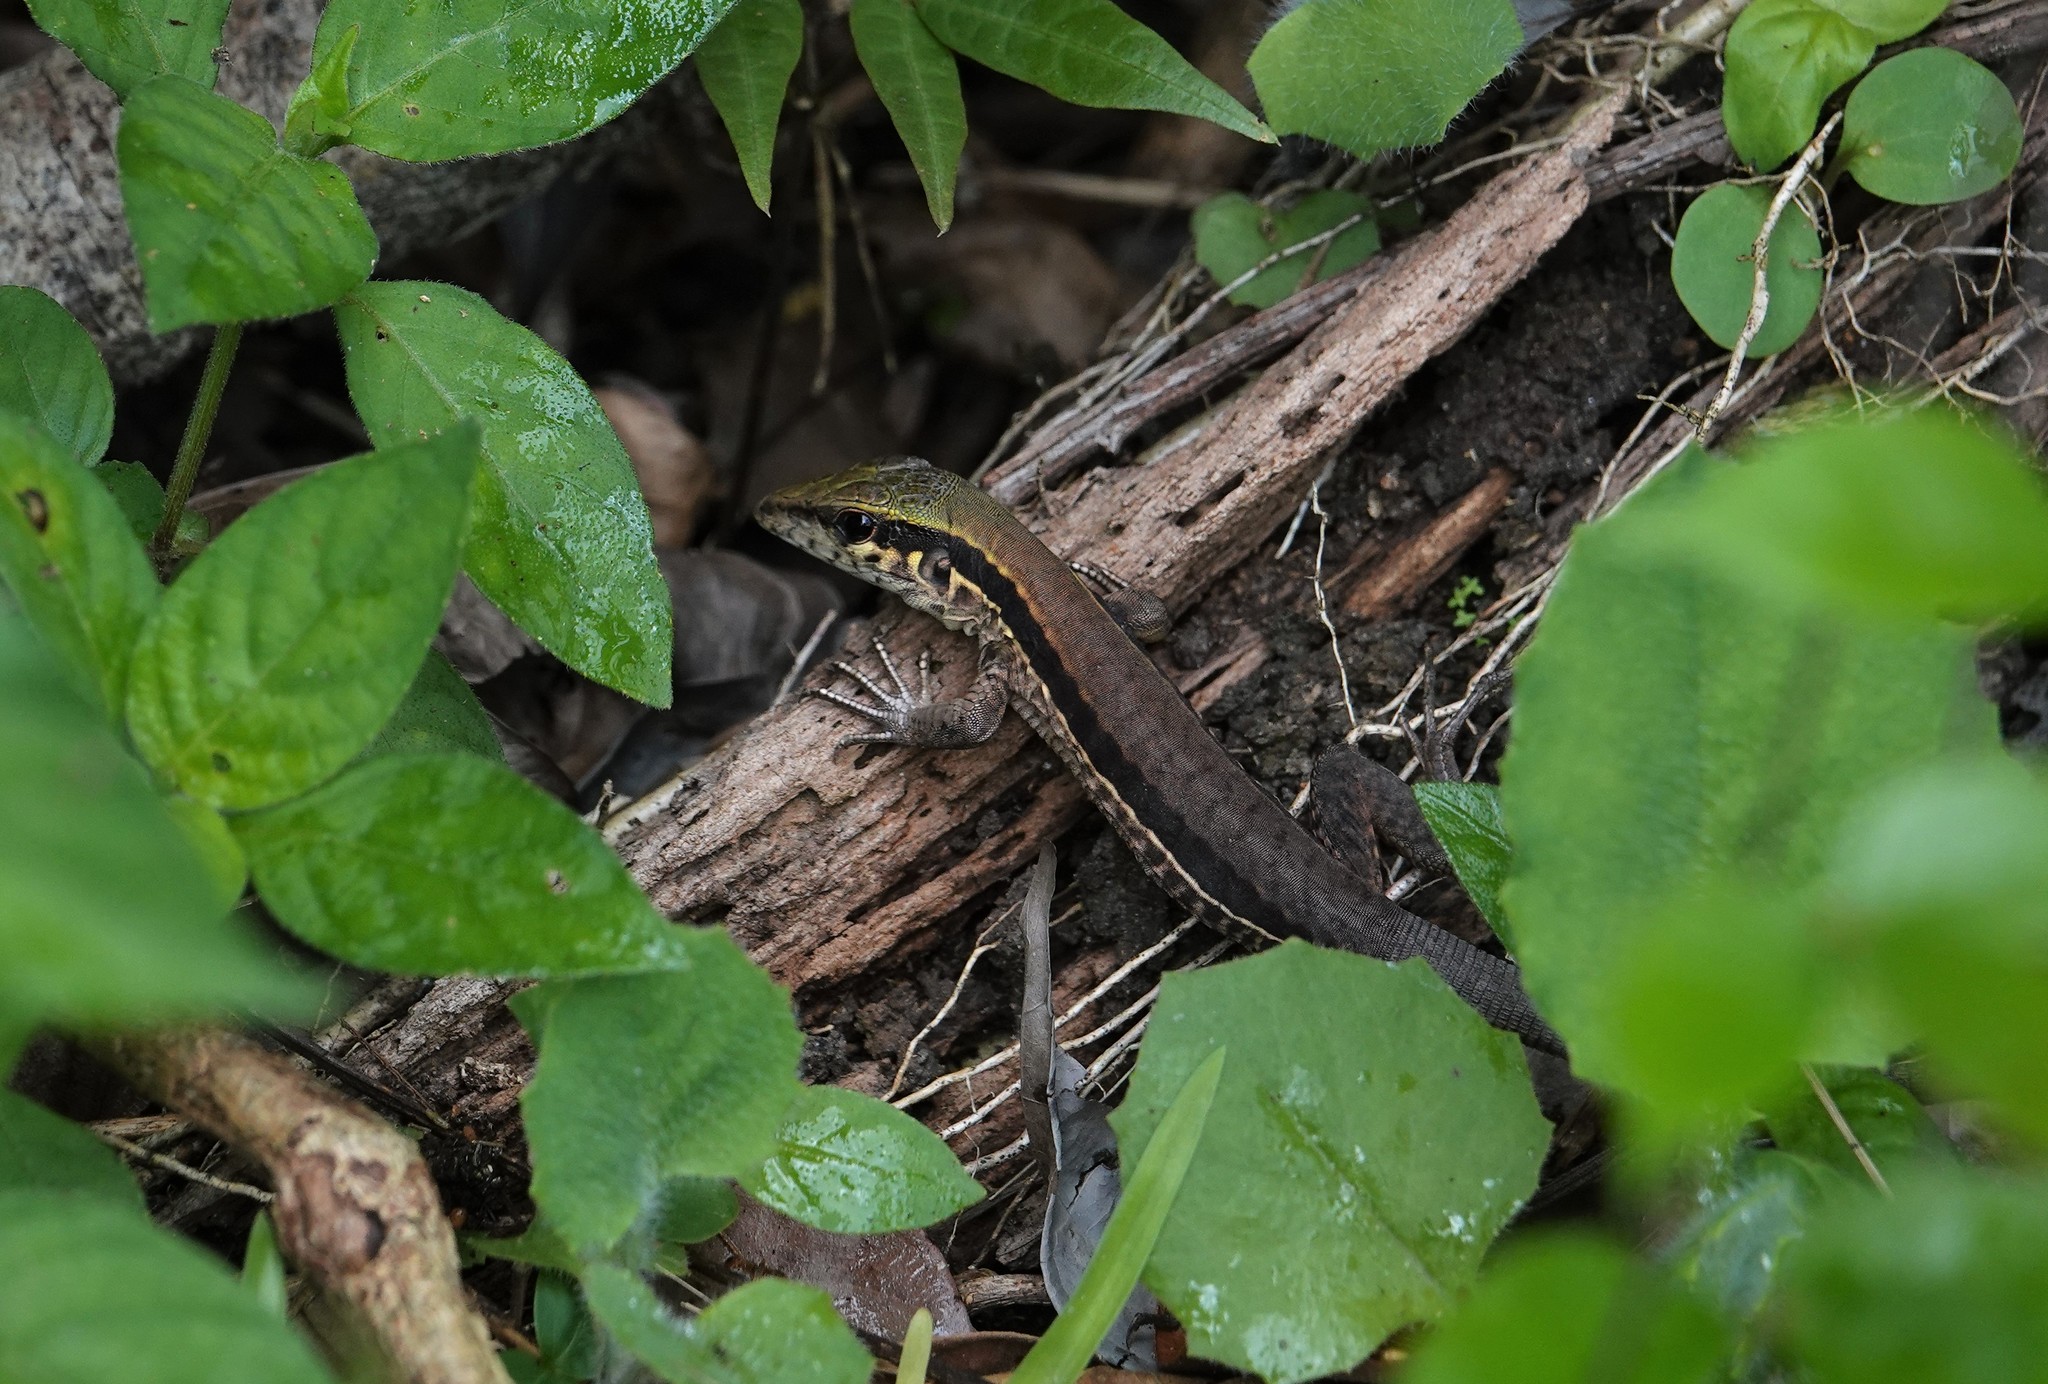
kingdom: Animalia
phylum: Chordata
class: Squamata
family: Teiidae
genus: Ameiva
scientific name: Ameiva ameiva
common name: Giant ameiva
